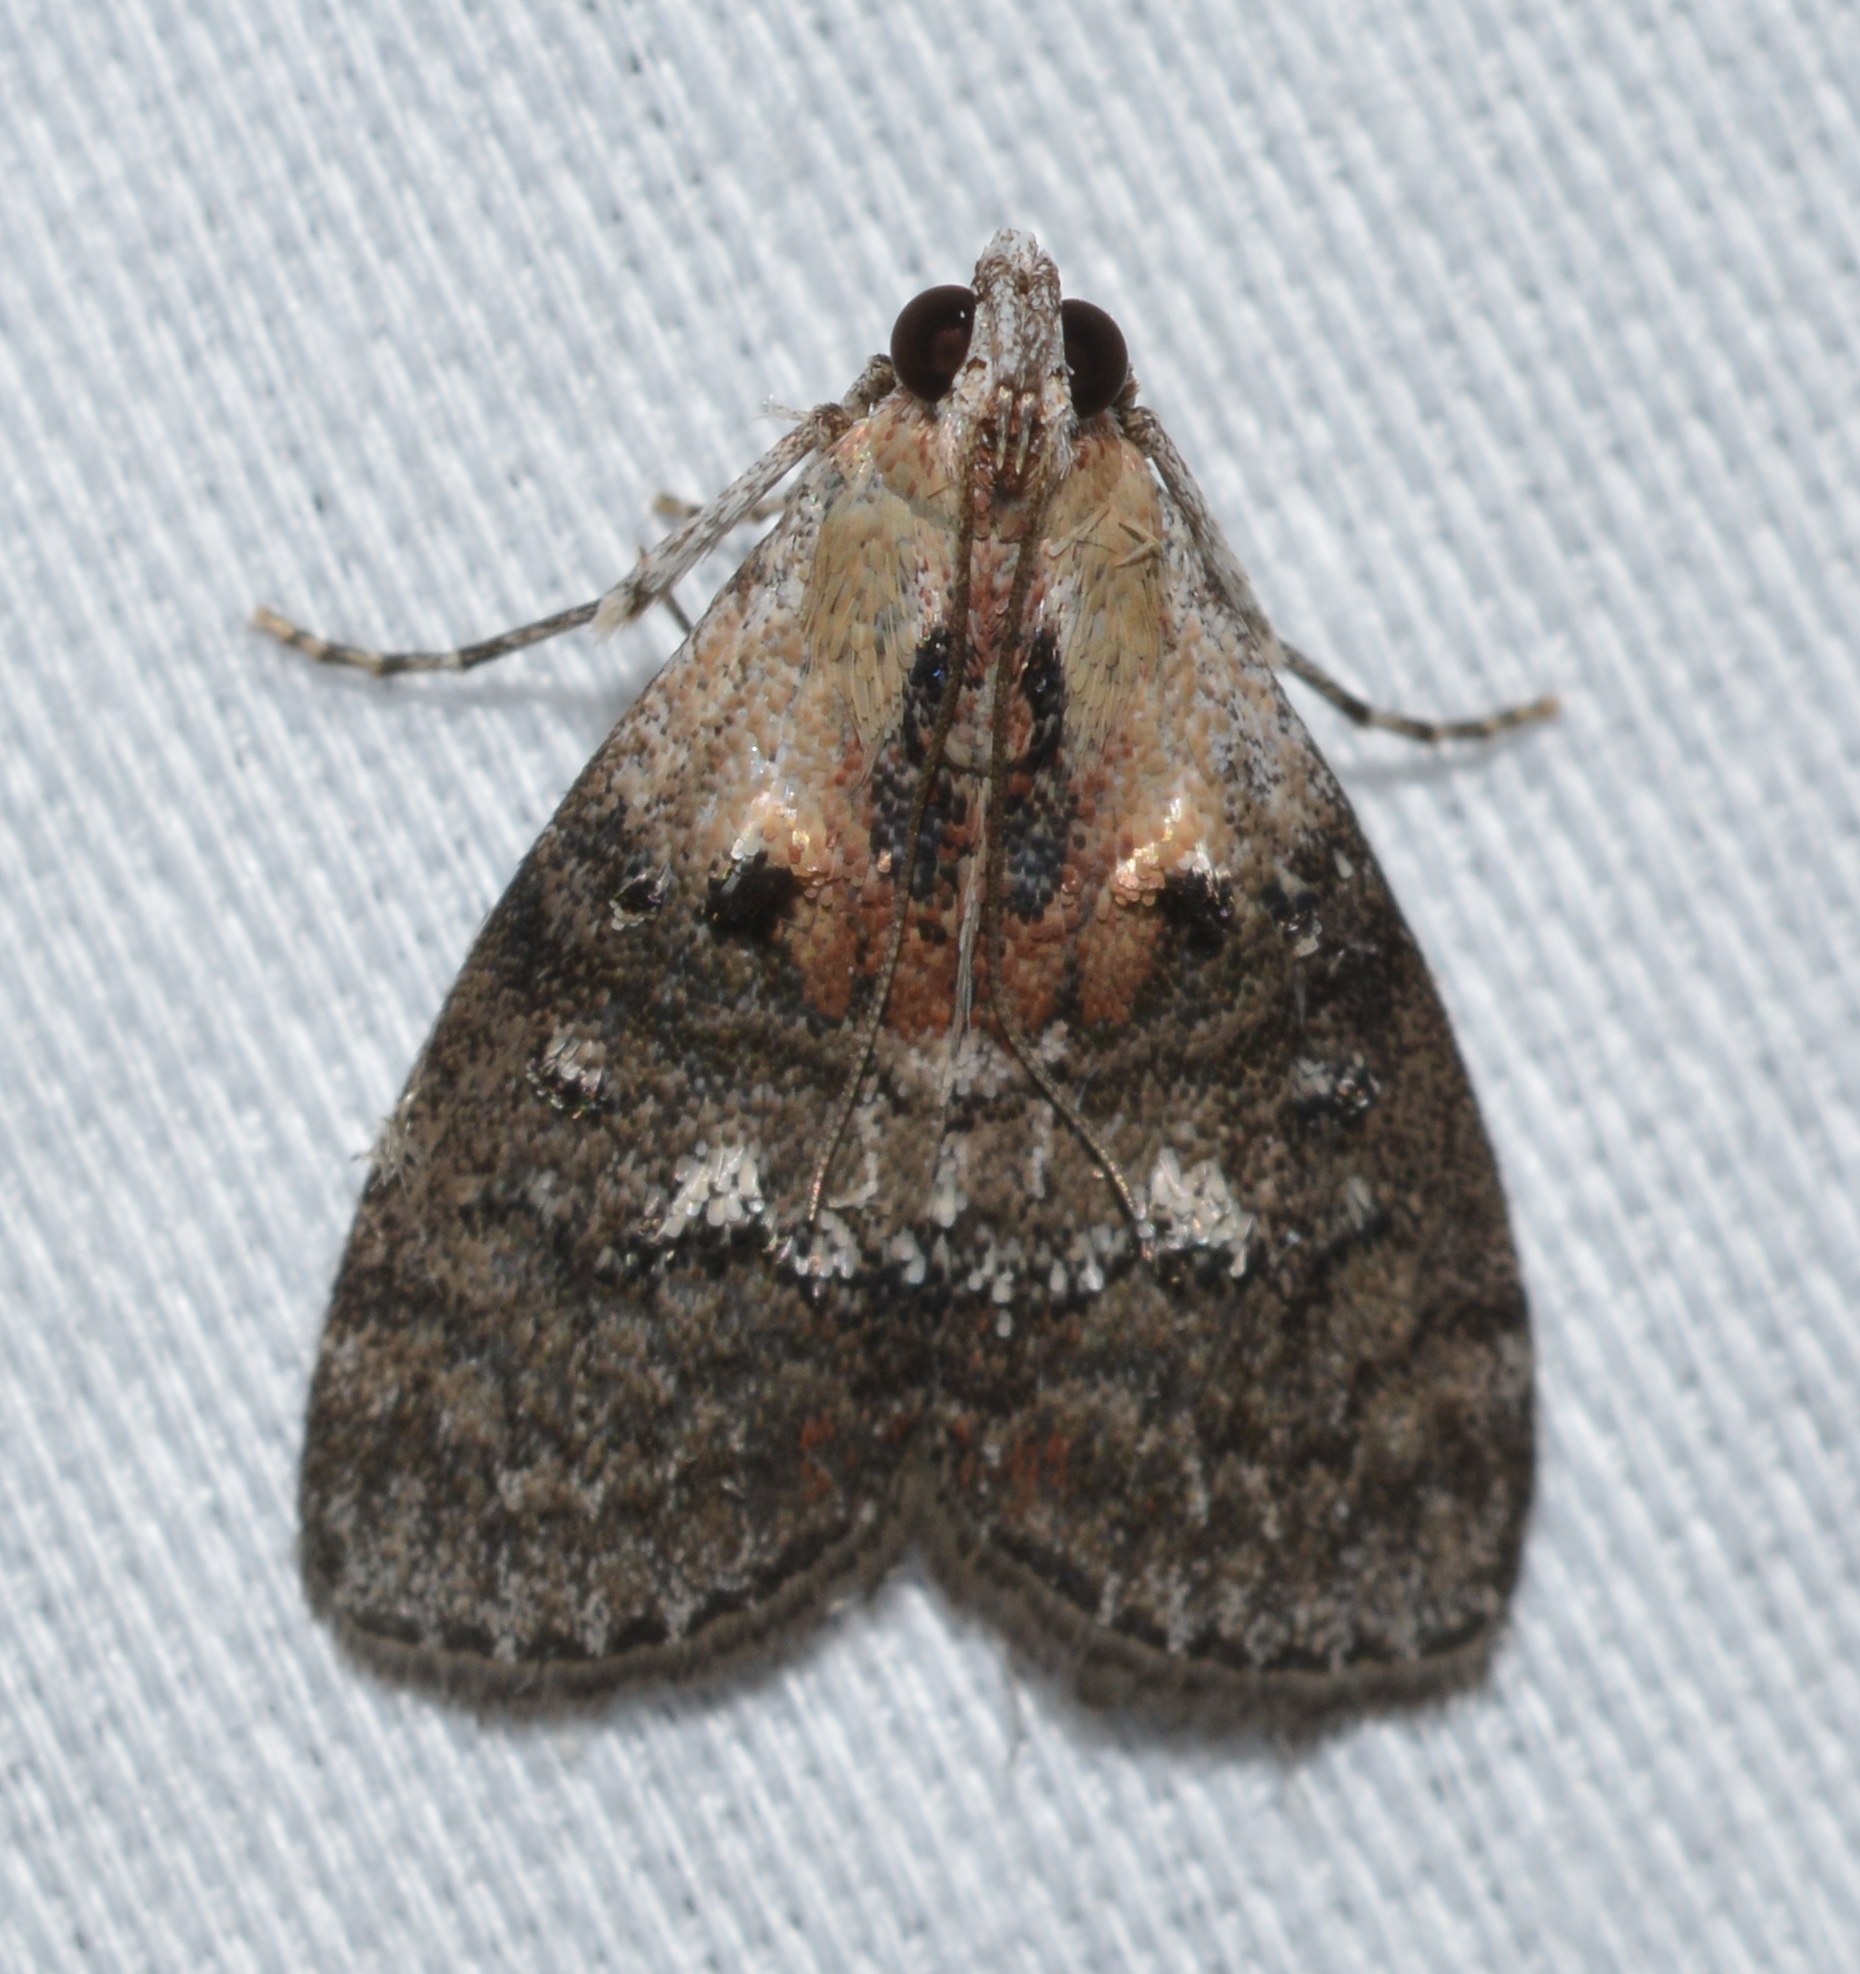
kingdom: Animalia
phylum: Arthropoda
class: Insecta
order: Lepidoptera
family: Pyralidae
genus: Pococera
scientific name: Pococera expandens
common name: Striped oak webworm moth
